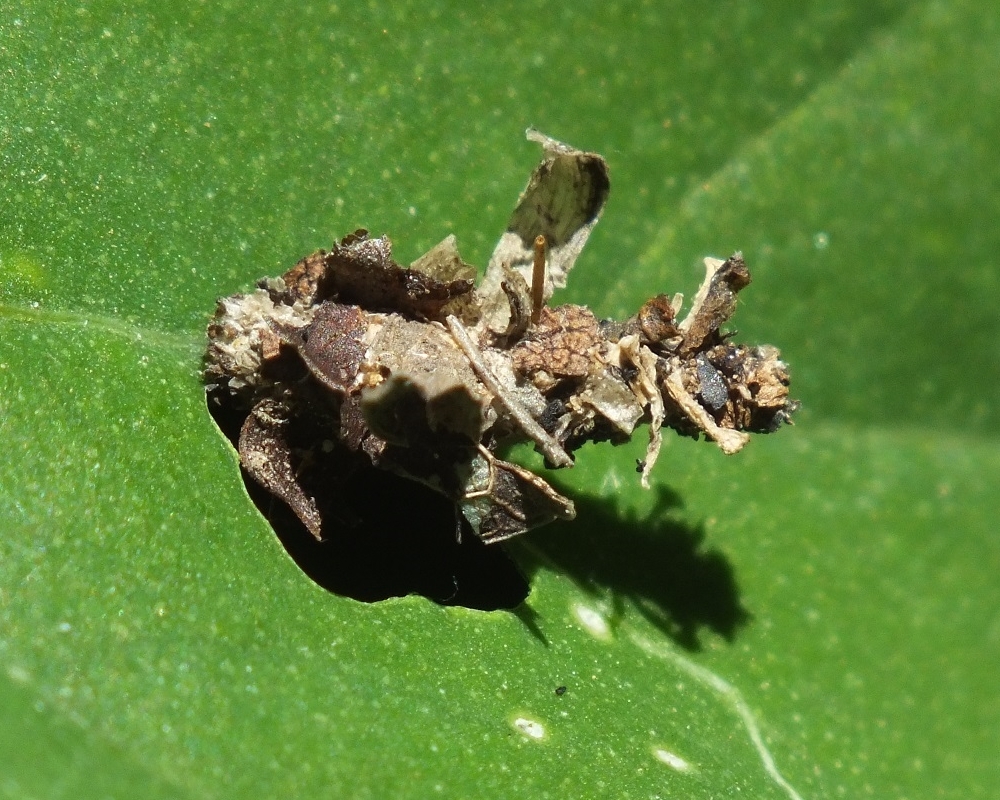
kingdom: Animalia
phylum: Arthropoda
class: Insecta
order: Lepidoptera
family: Psychidae
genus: Proutia
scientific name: Proutia betulina
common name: Birch sweep
